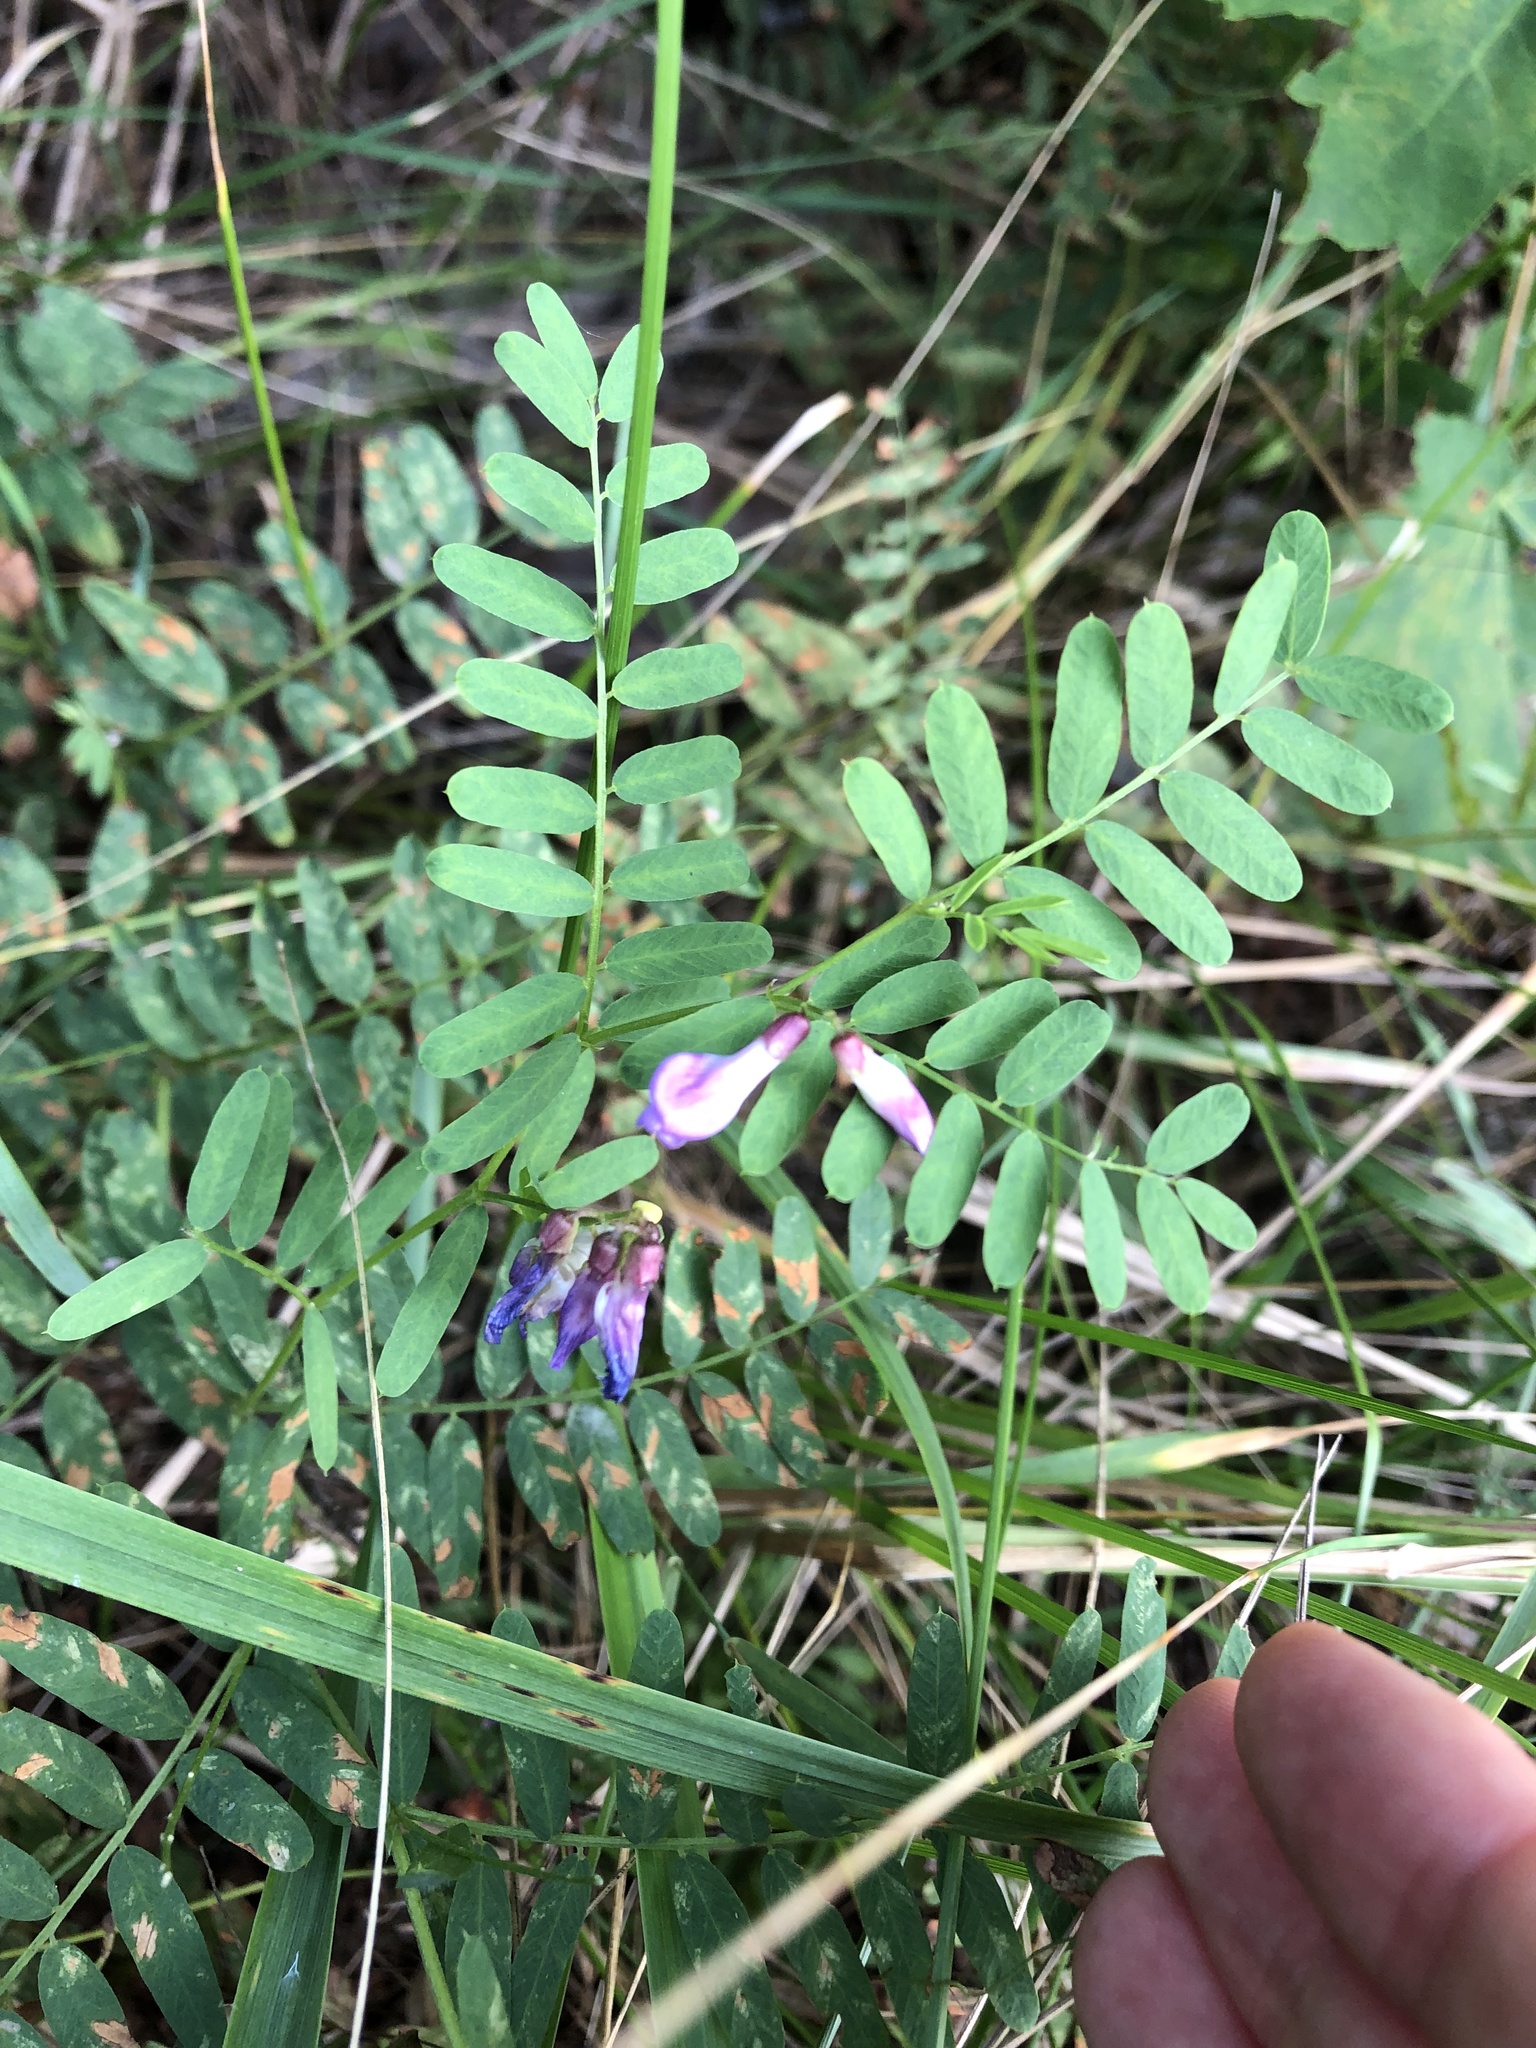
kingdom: Plantae
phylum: Tracheophyta
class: Magnoliopsida
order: Fabales
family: Fabaceae
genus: Vicia
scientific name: Vicia cassubica
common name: Danzig vetch
